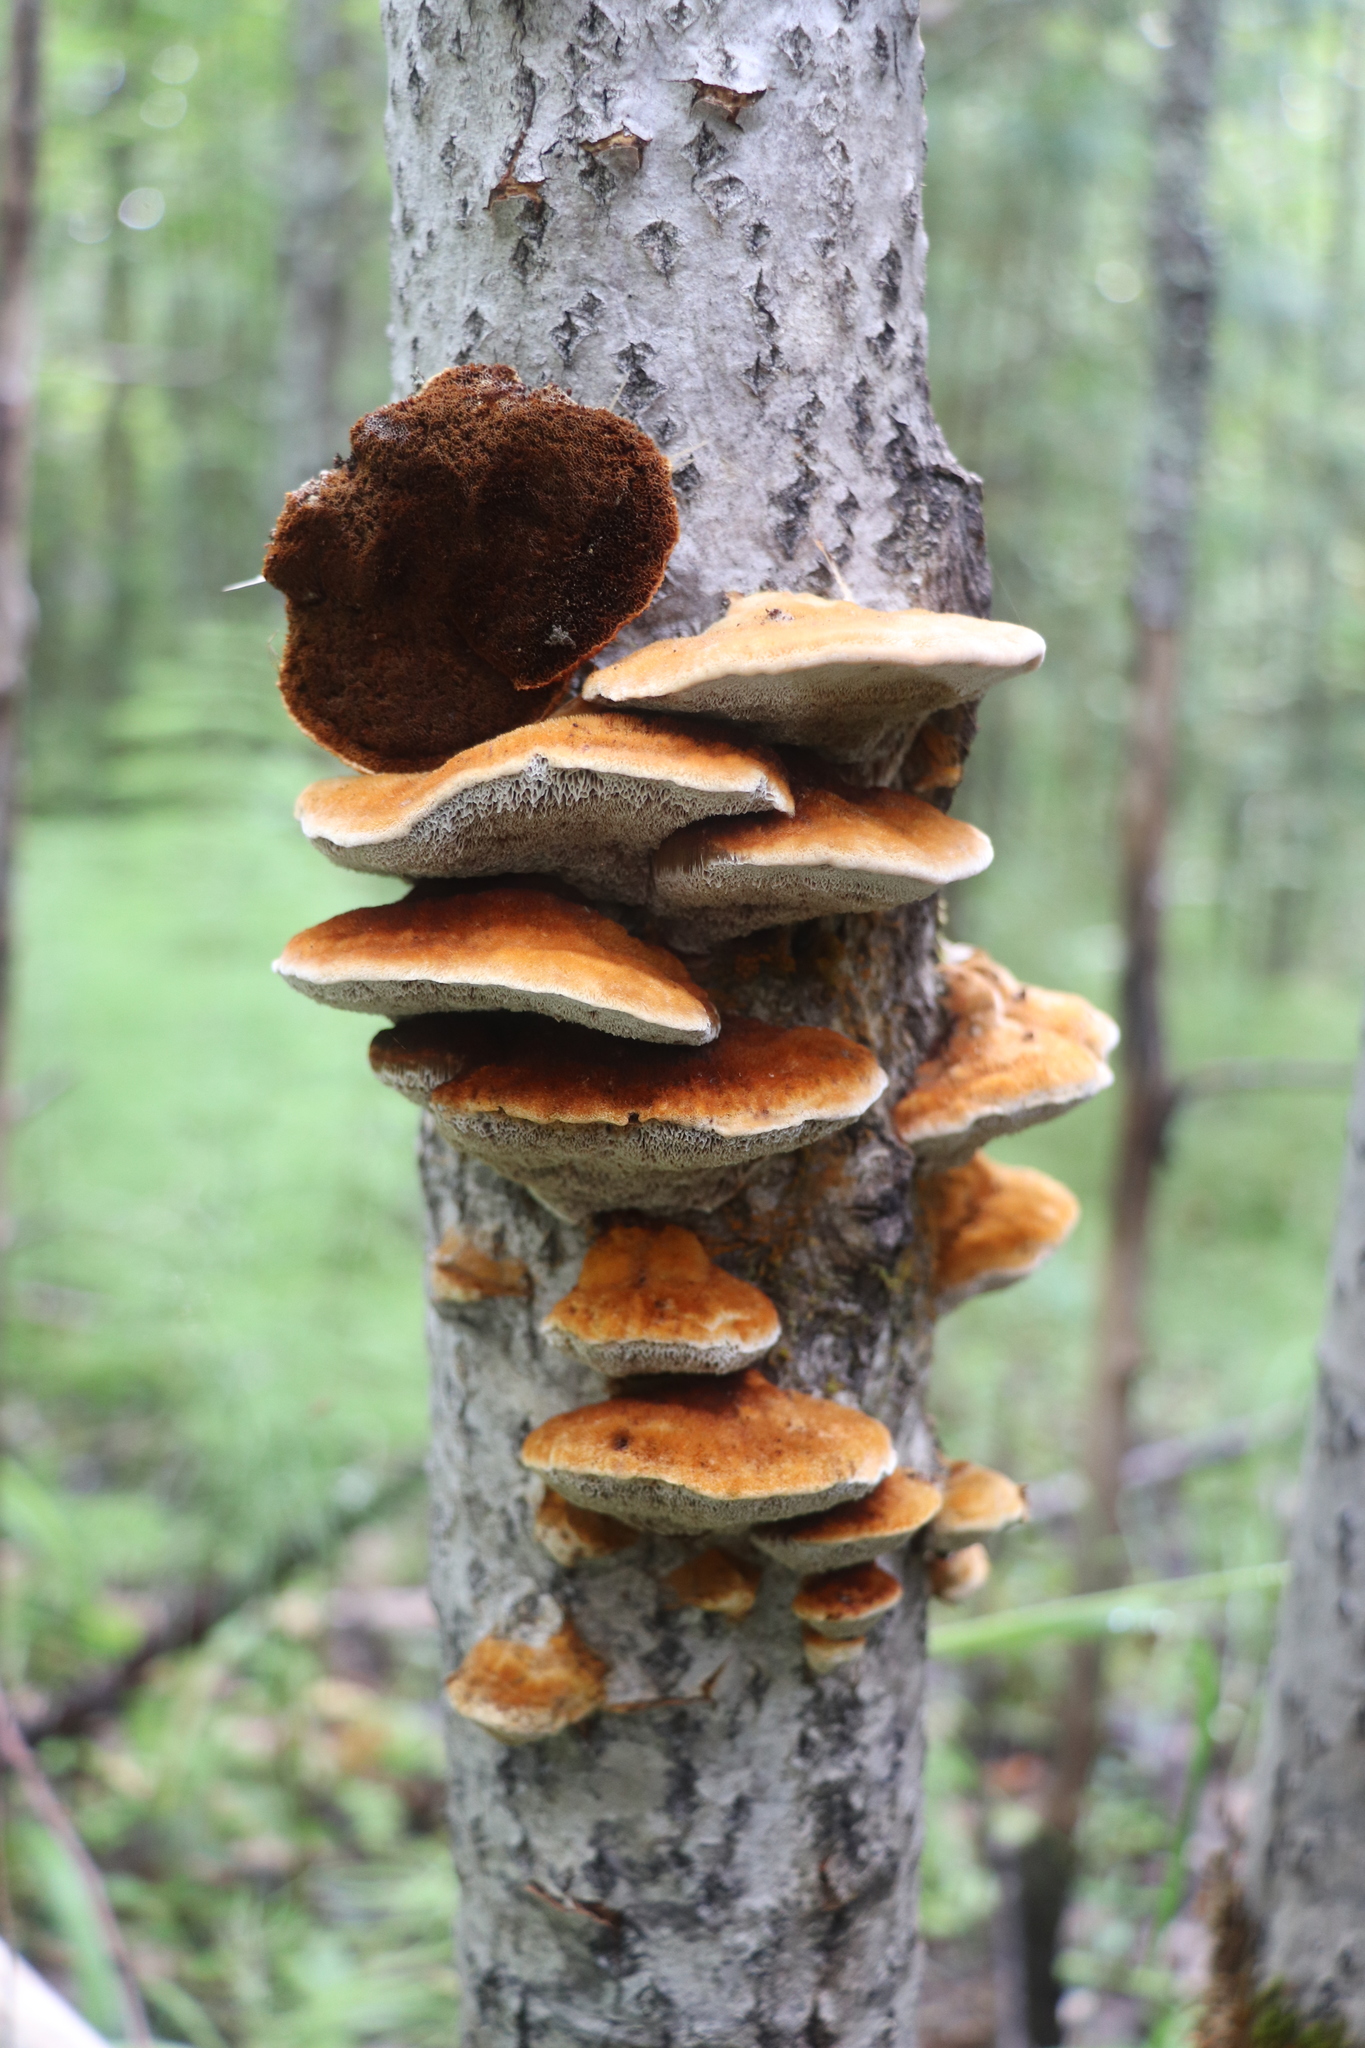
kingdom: Fungi
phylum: Basidiomycota
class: Agaricomycetes
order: Hymenochaetales
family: Hymenochaetaceae
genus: Inocutis
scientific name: Inocutis rheades
